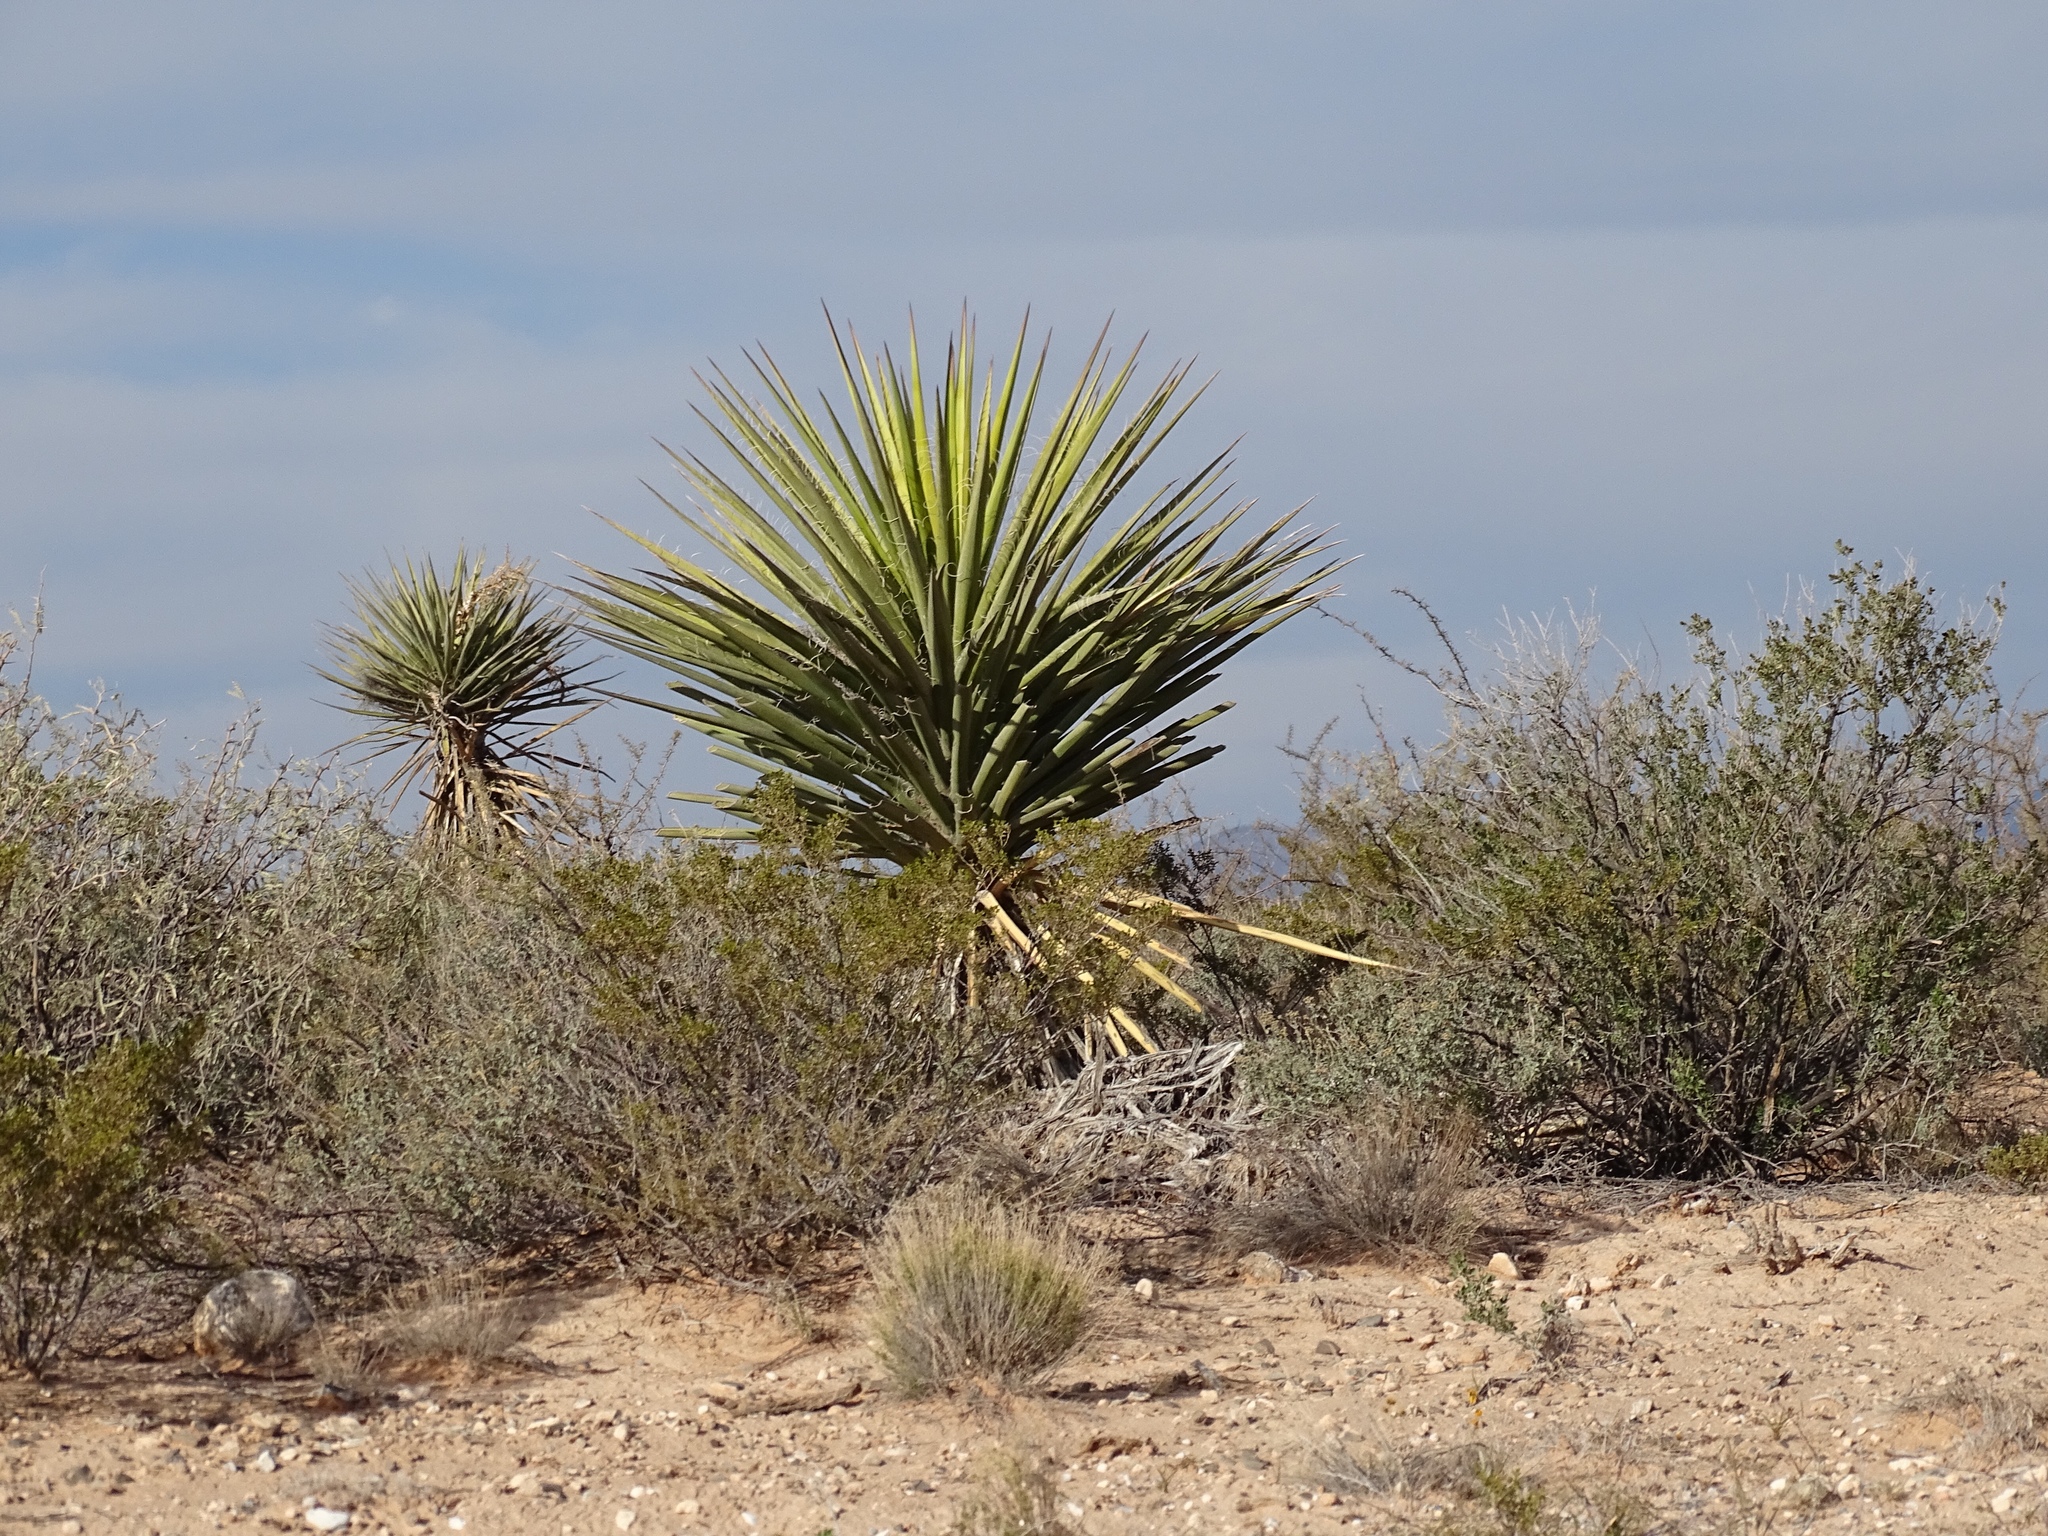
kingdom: Plantae
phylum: Tracheophyta
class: Liliopsida
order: Asparagales
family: Asparagaceae
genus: Yucca
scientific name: Yucca treculiana
